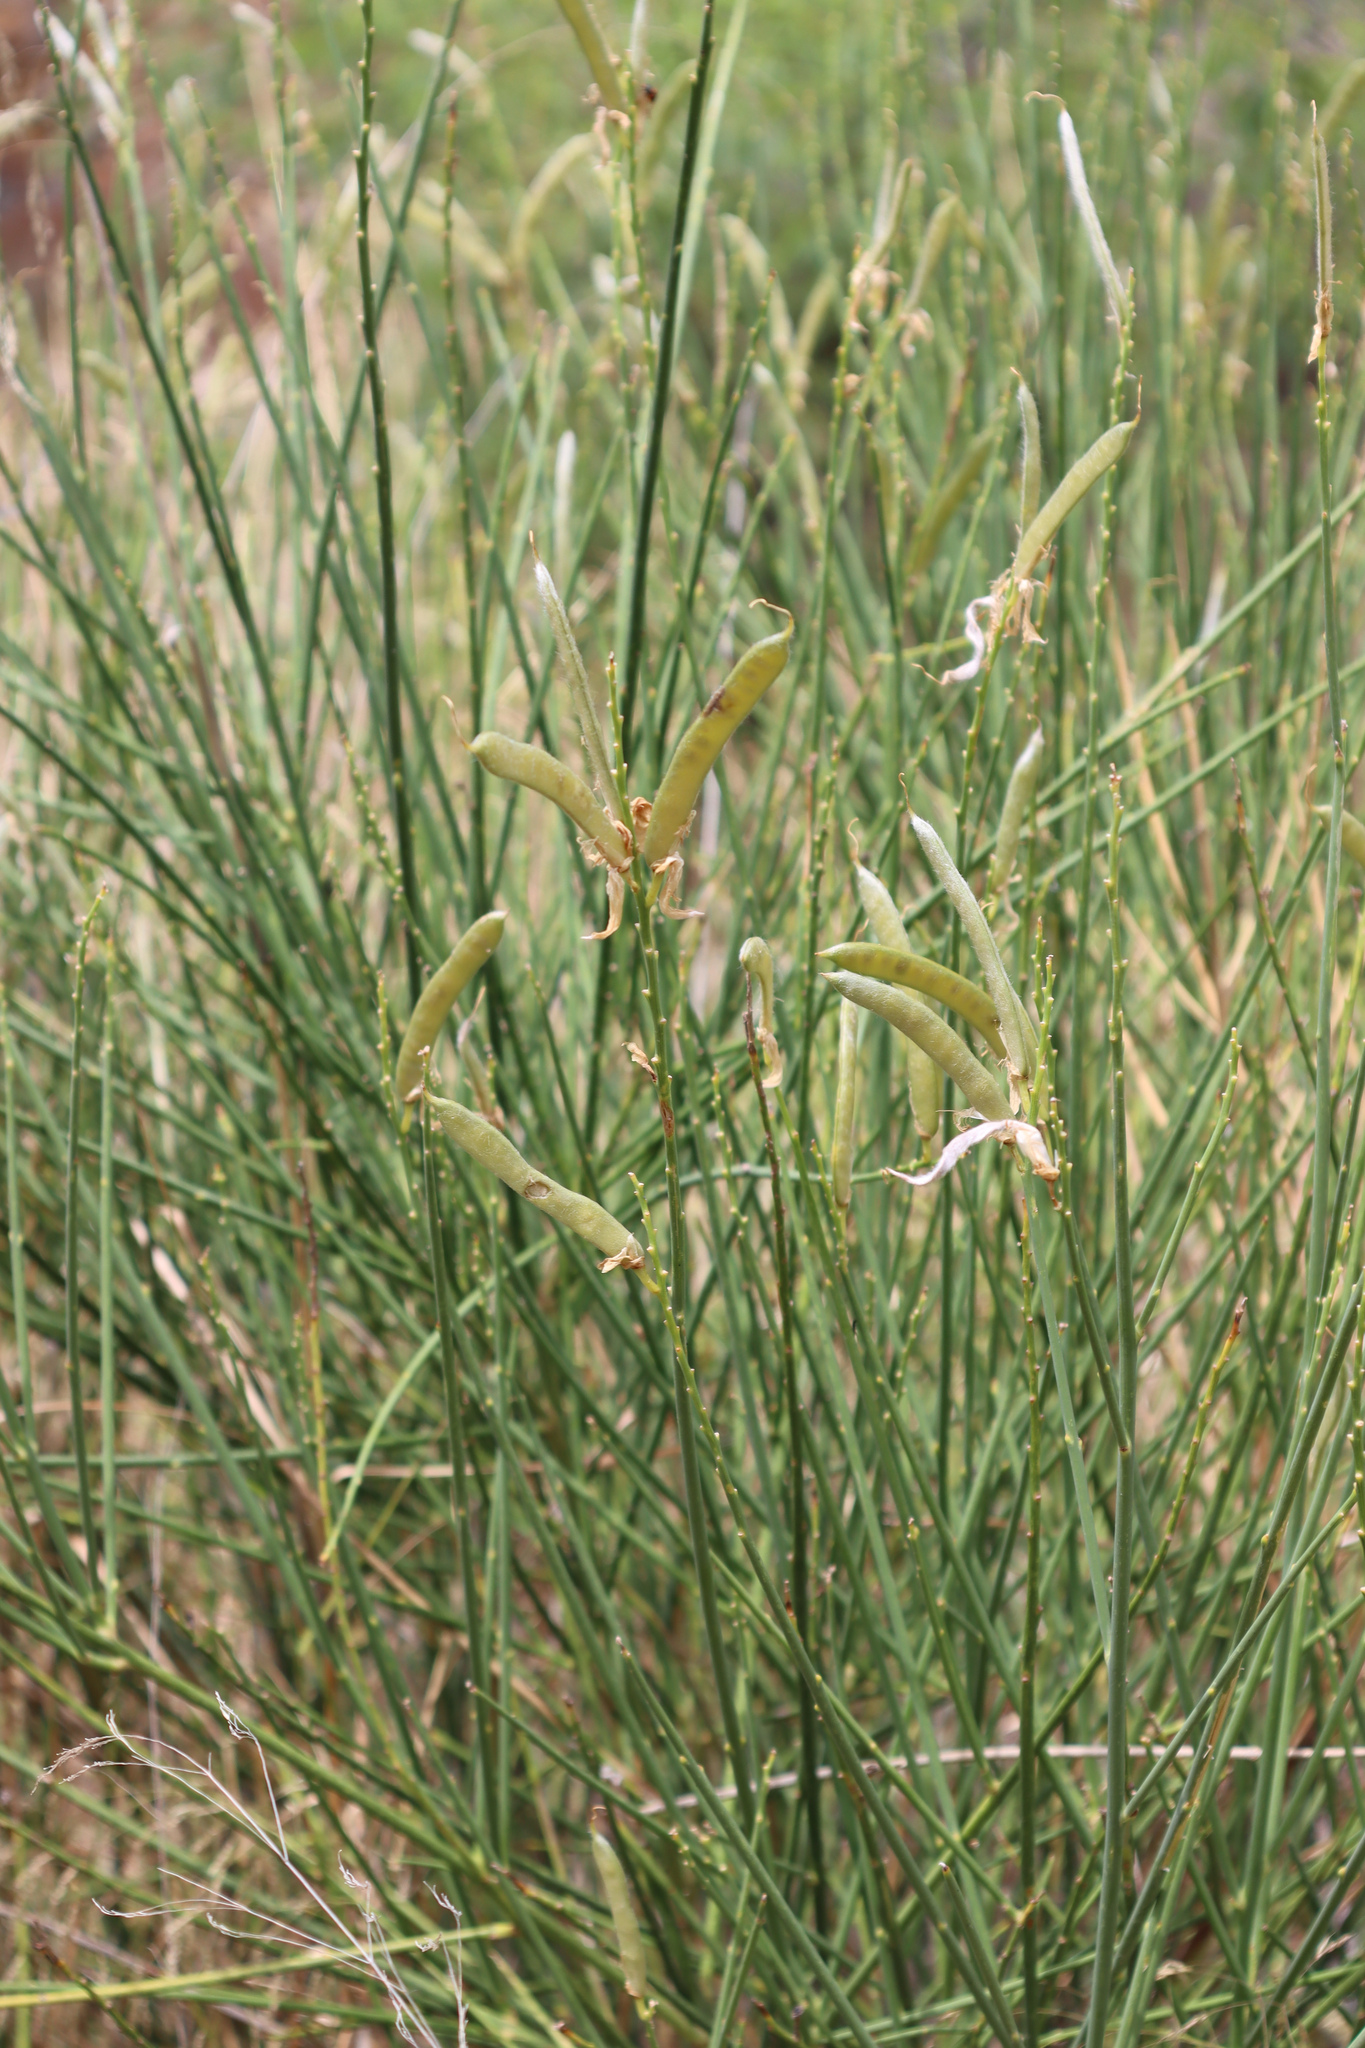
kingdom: Plantae
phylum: Tracheophyta
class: Magnoliopsida
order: Fabales
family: Fabaceae
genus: Spartium
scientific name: Spartium junceum
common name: Spanish broom
